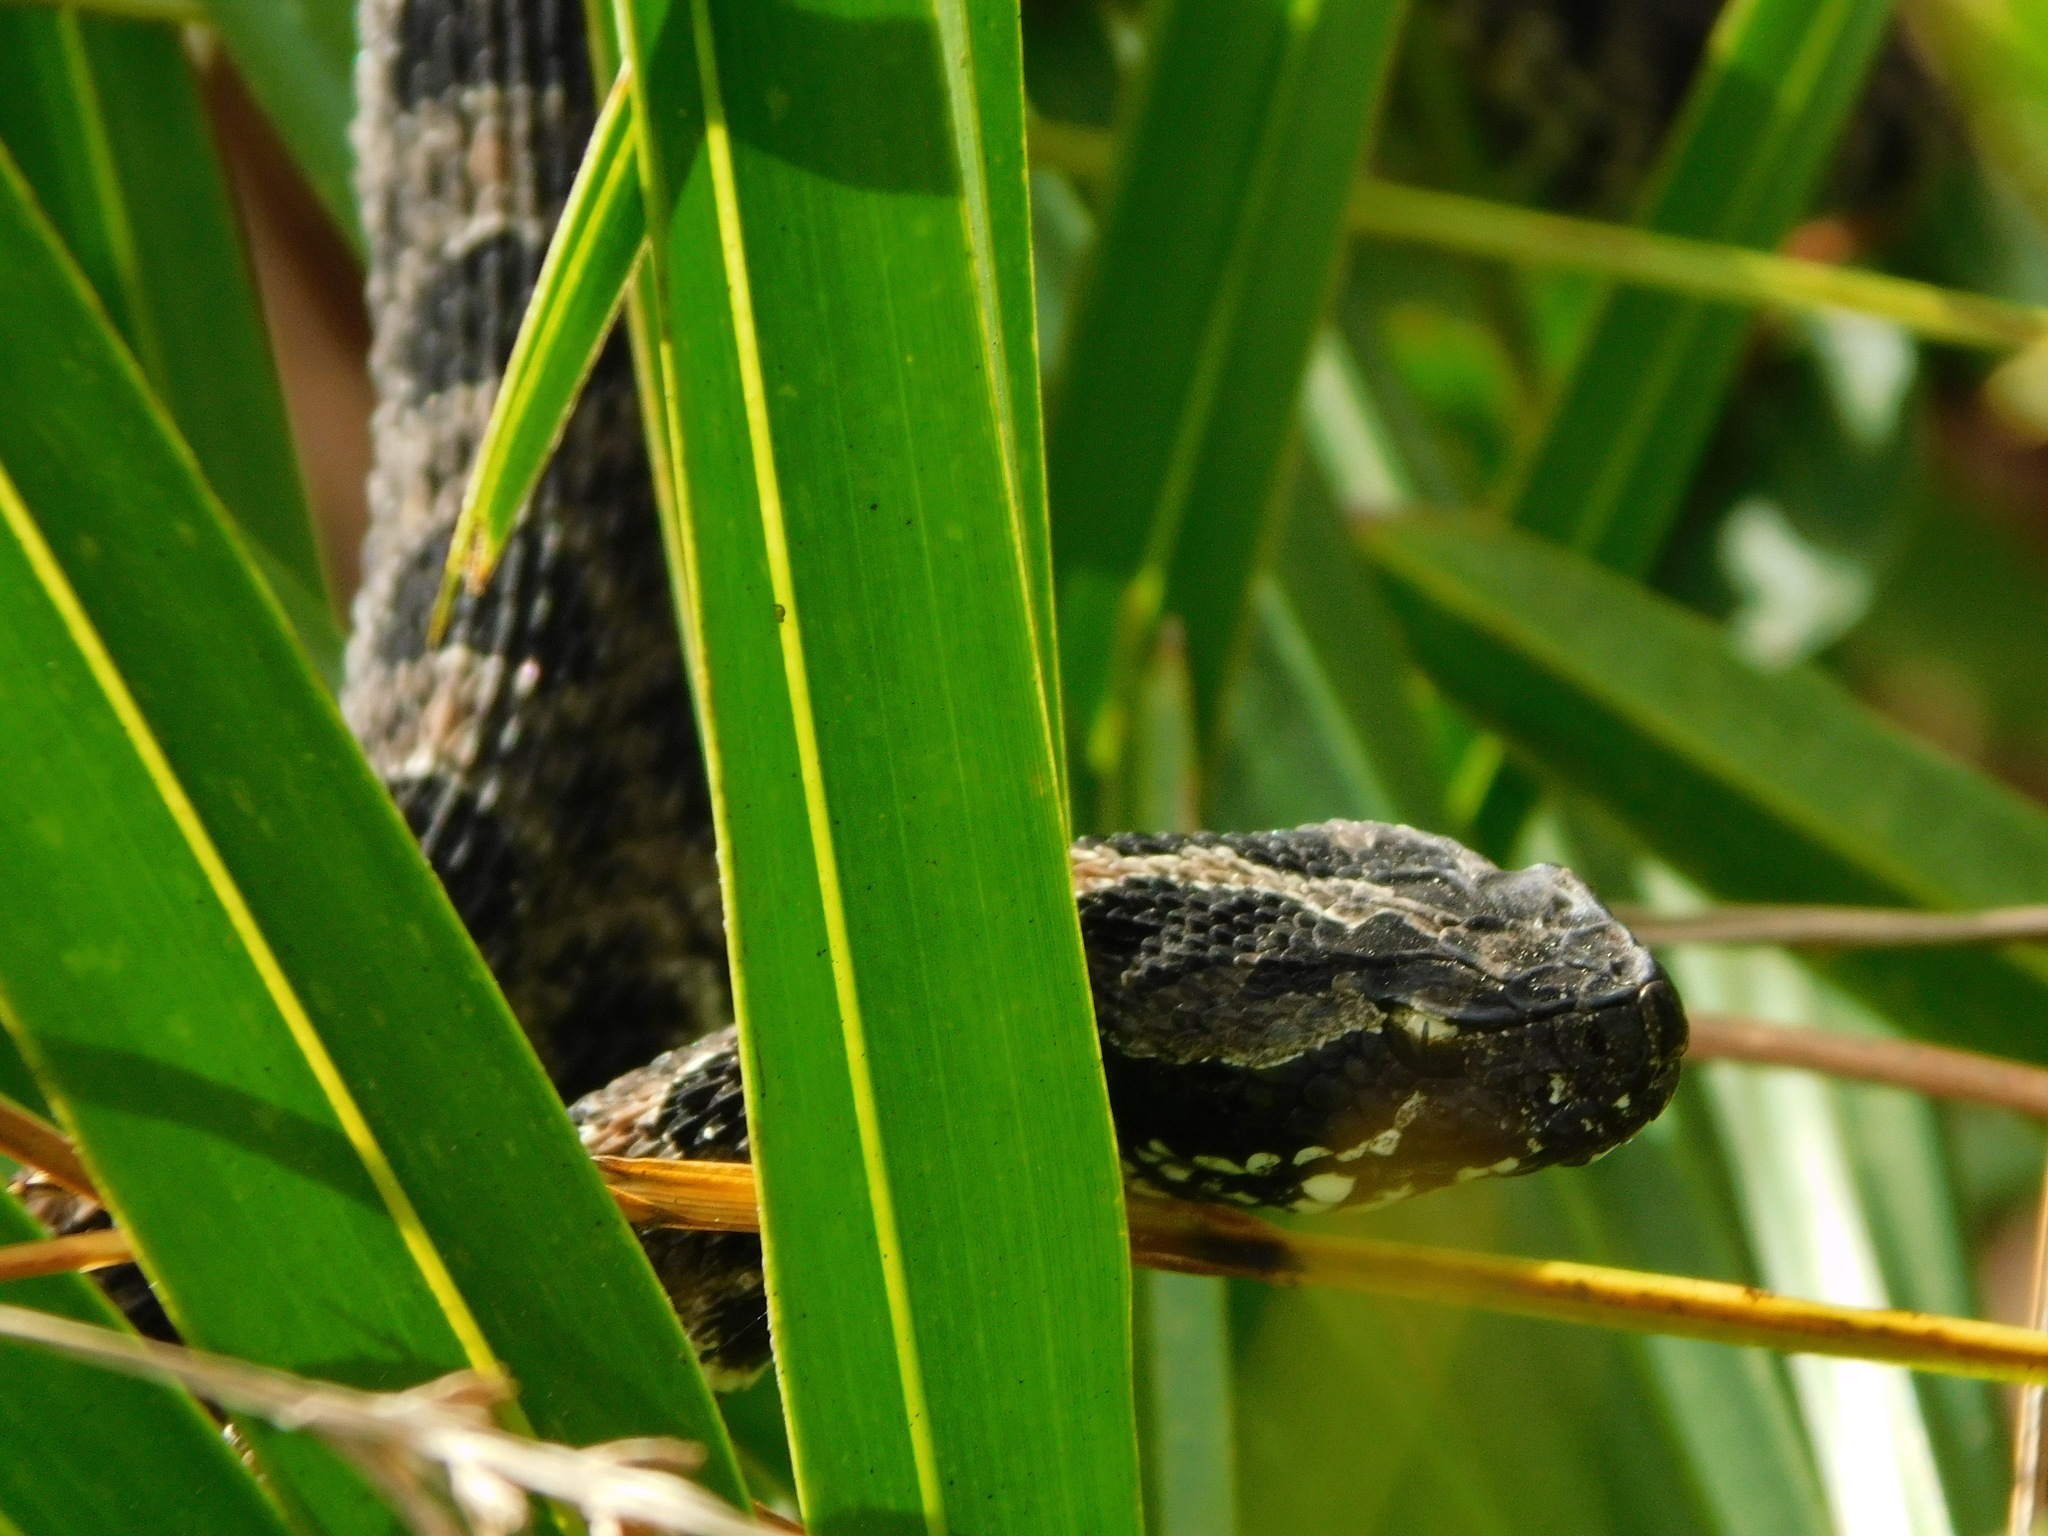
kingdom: Animalia
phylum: Chordata
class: Squamata
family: Viperidae
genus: Sistrurus
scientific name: Sistrurus miliarius
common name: Pygmy rattlesnake
